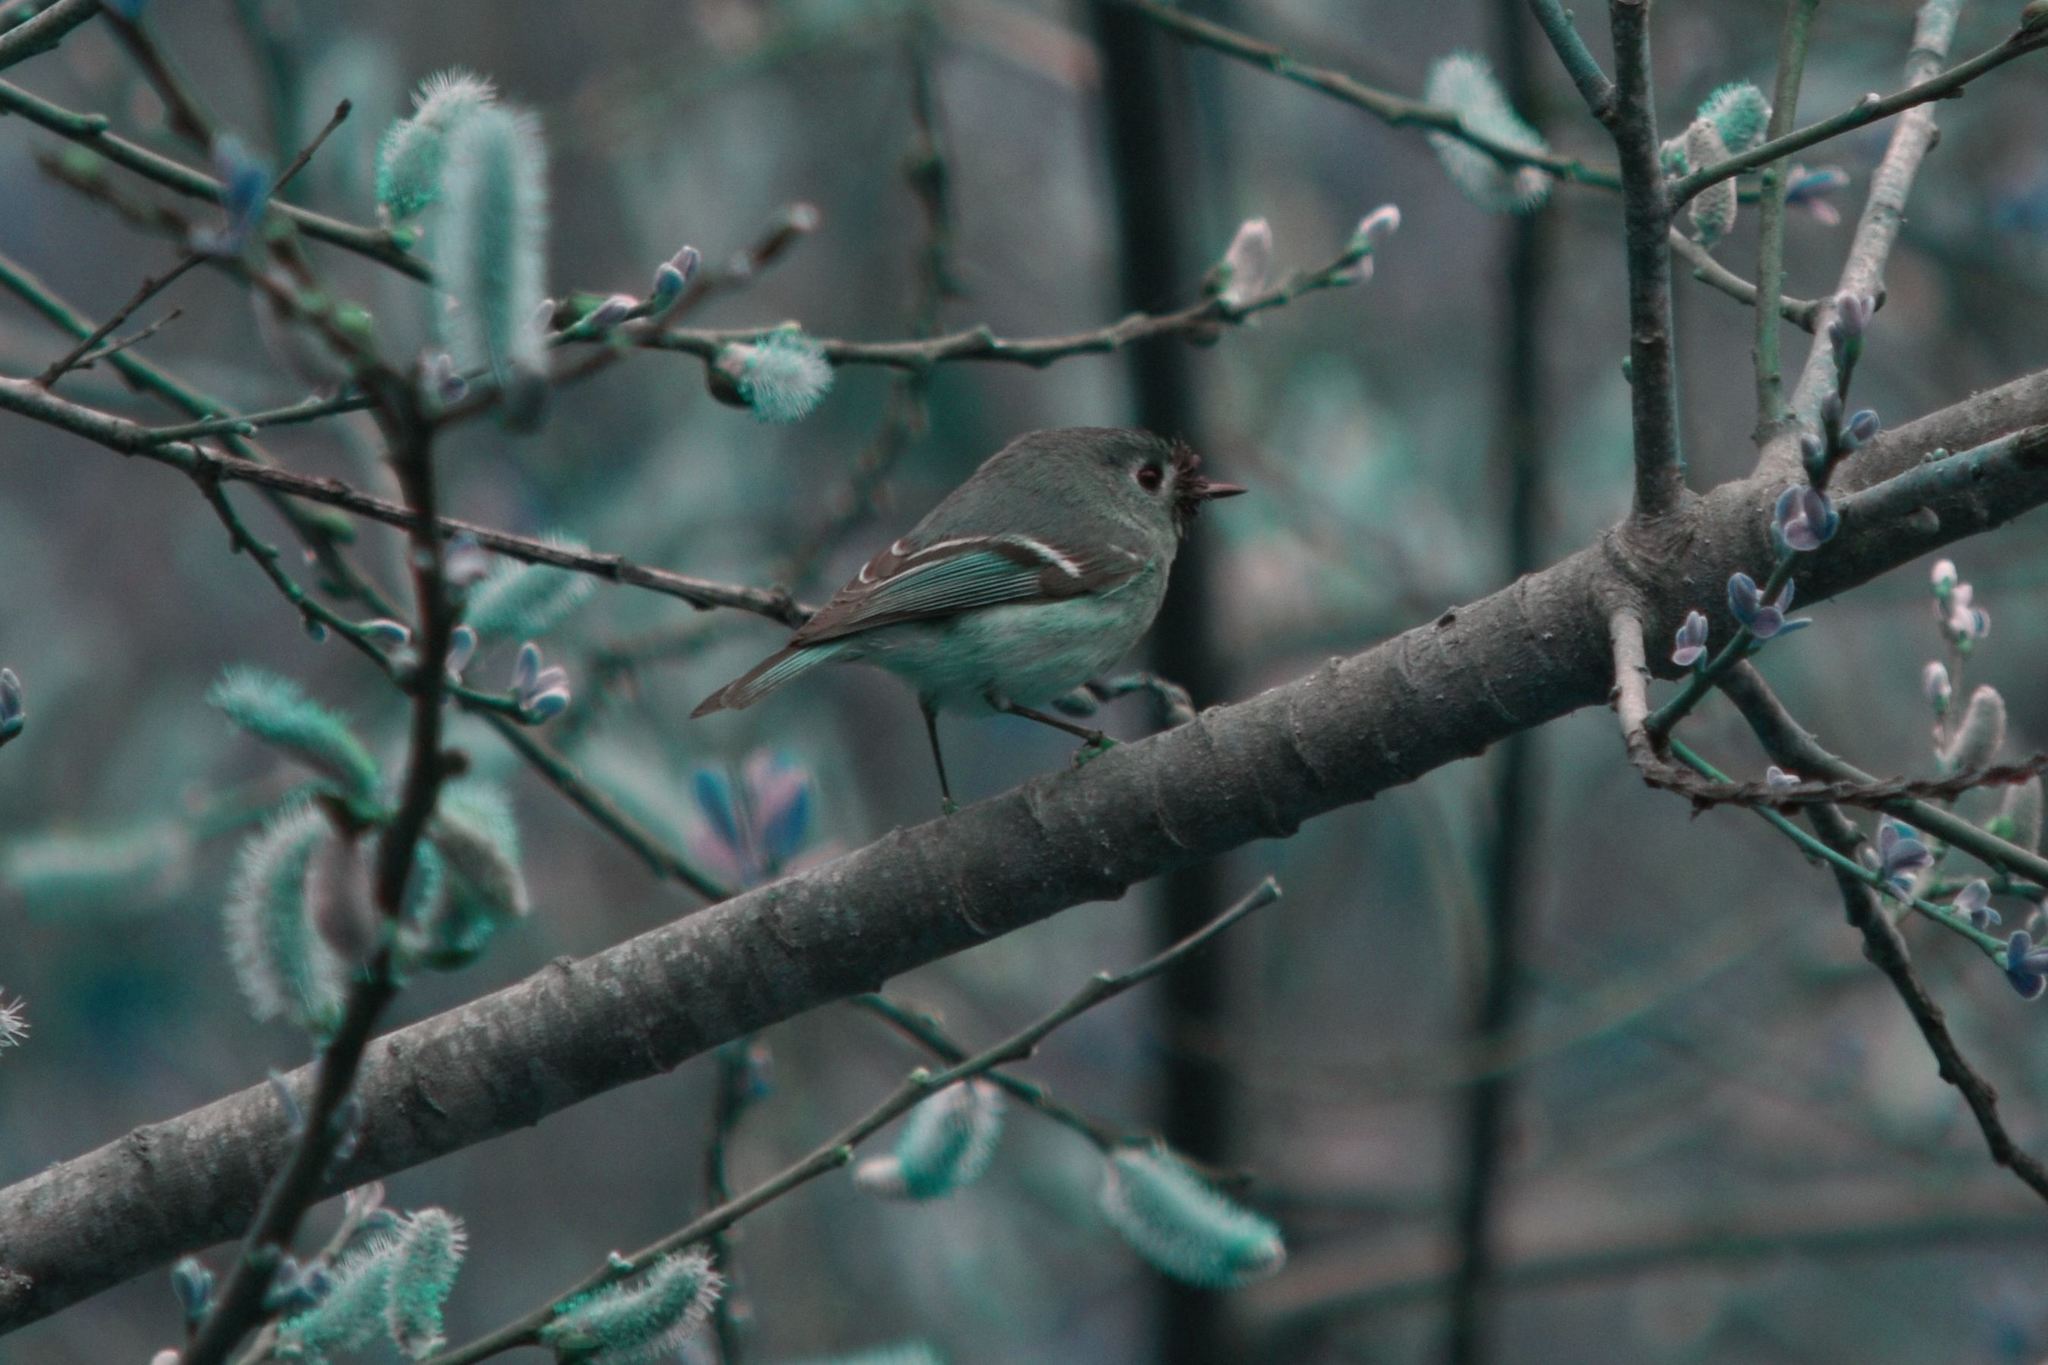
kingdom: Animalia
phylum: Chordata
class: Aves
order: Passeriformes
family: Regulidae
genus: Regulus
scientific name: Regulus calendula
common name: Ruby-crowned kinglet
